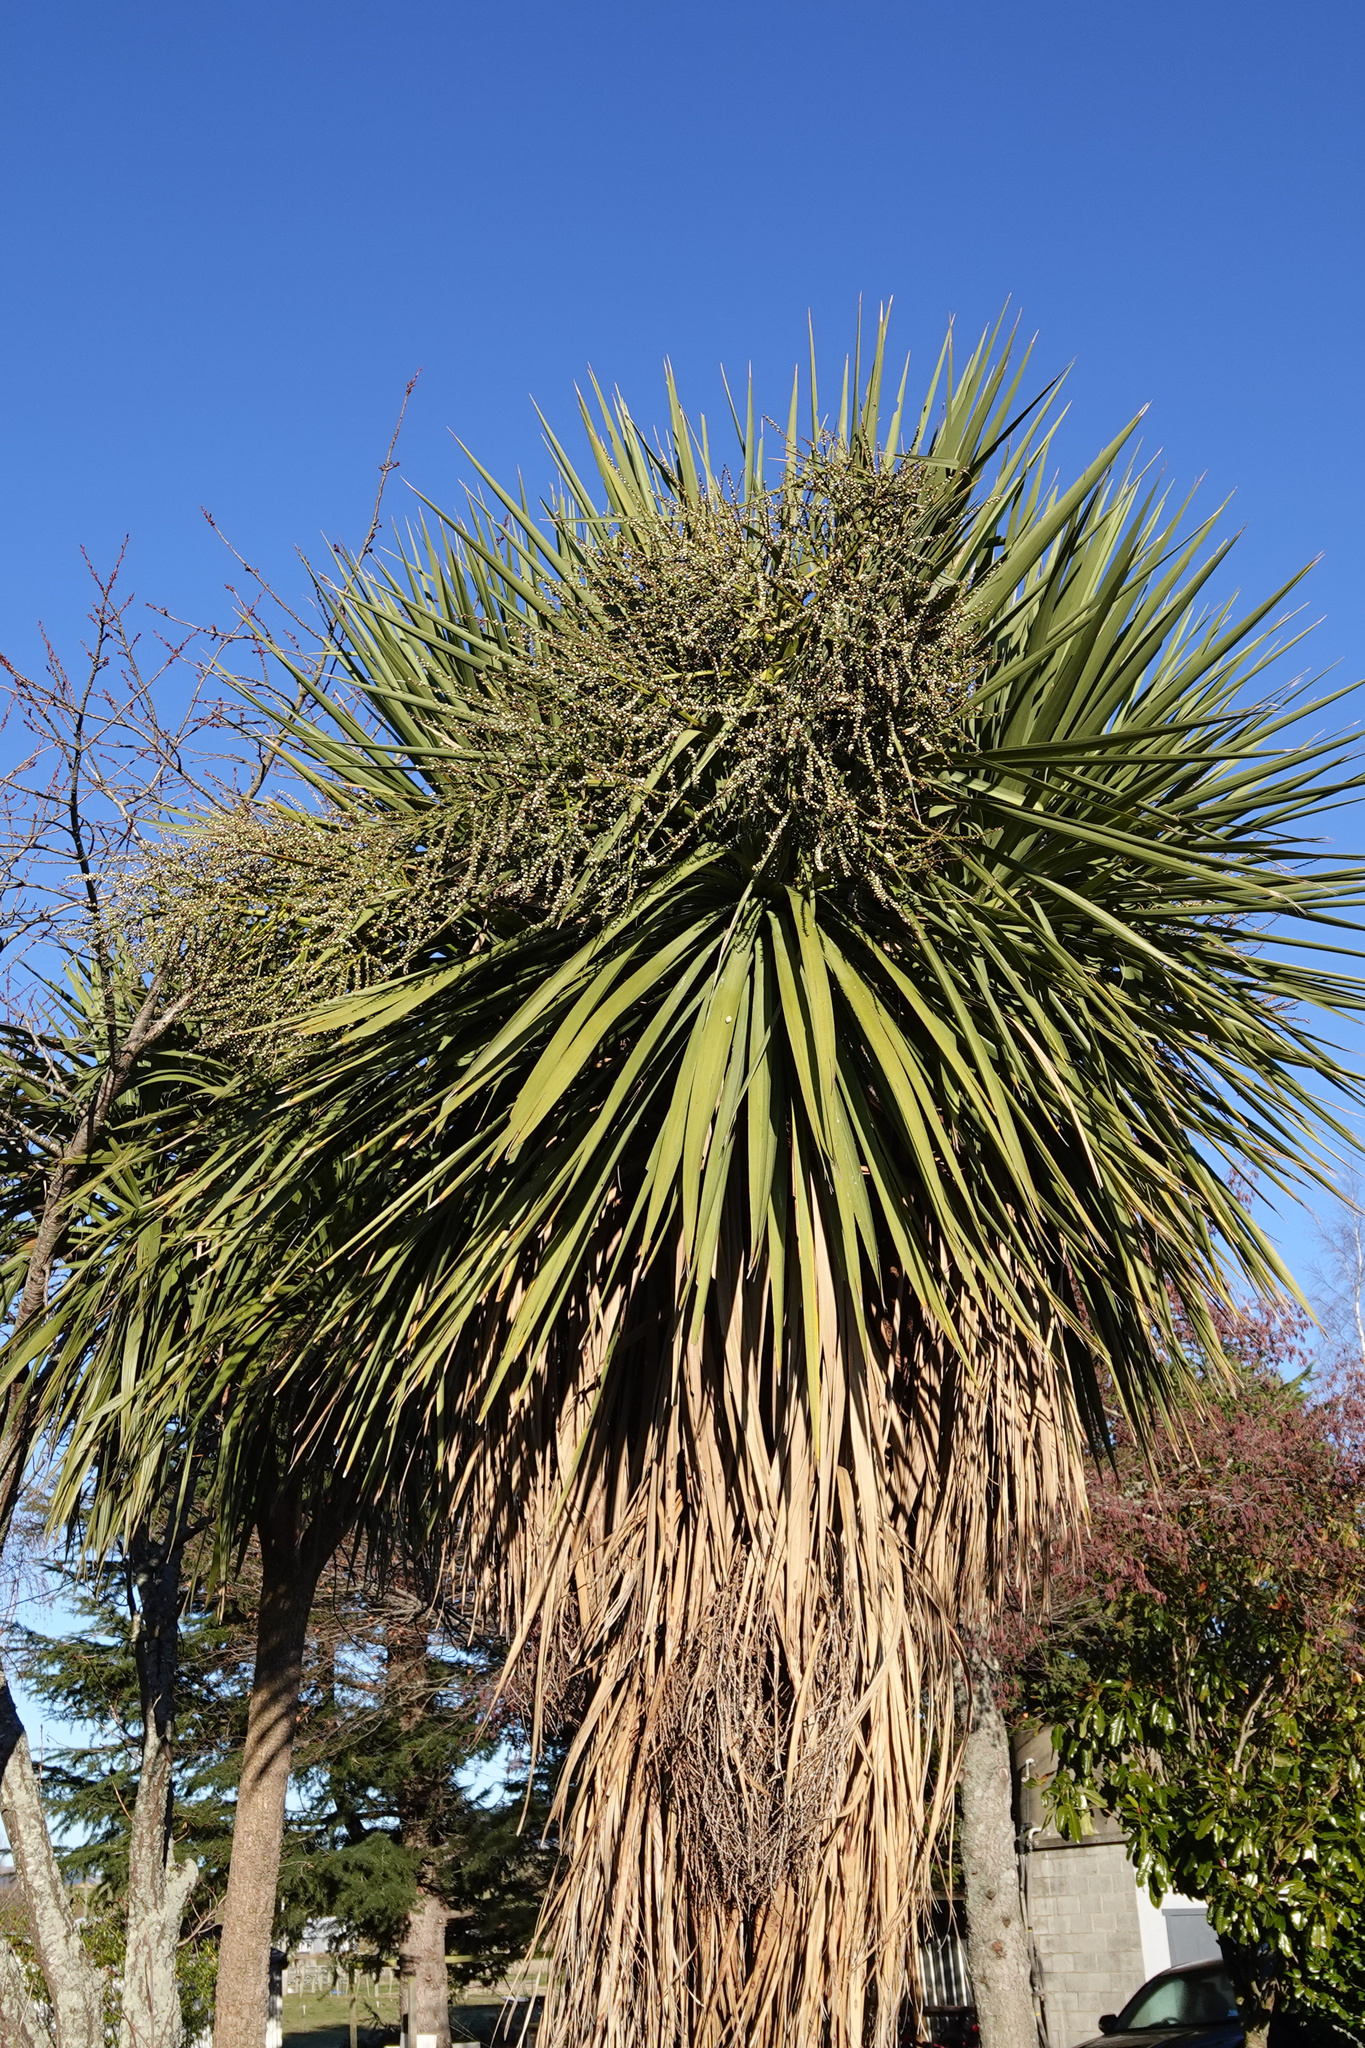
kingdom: Plantae
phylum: Tracheophyta
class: Liliopsida
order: Asparagales
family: Asparagaceae
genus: Cordyline
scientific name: Cordyline australis
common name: Cabbage-palm
